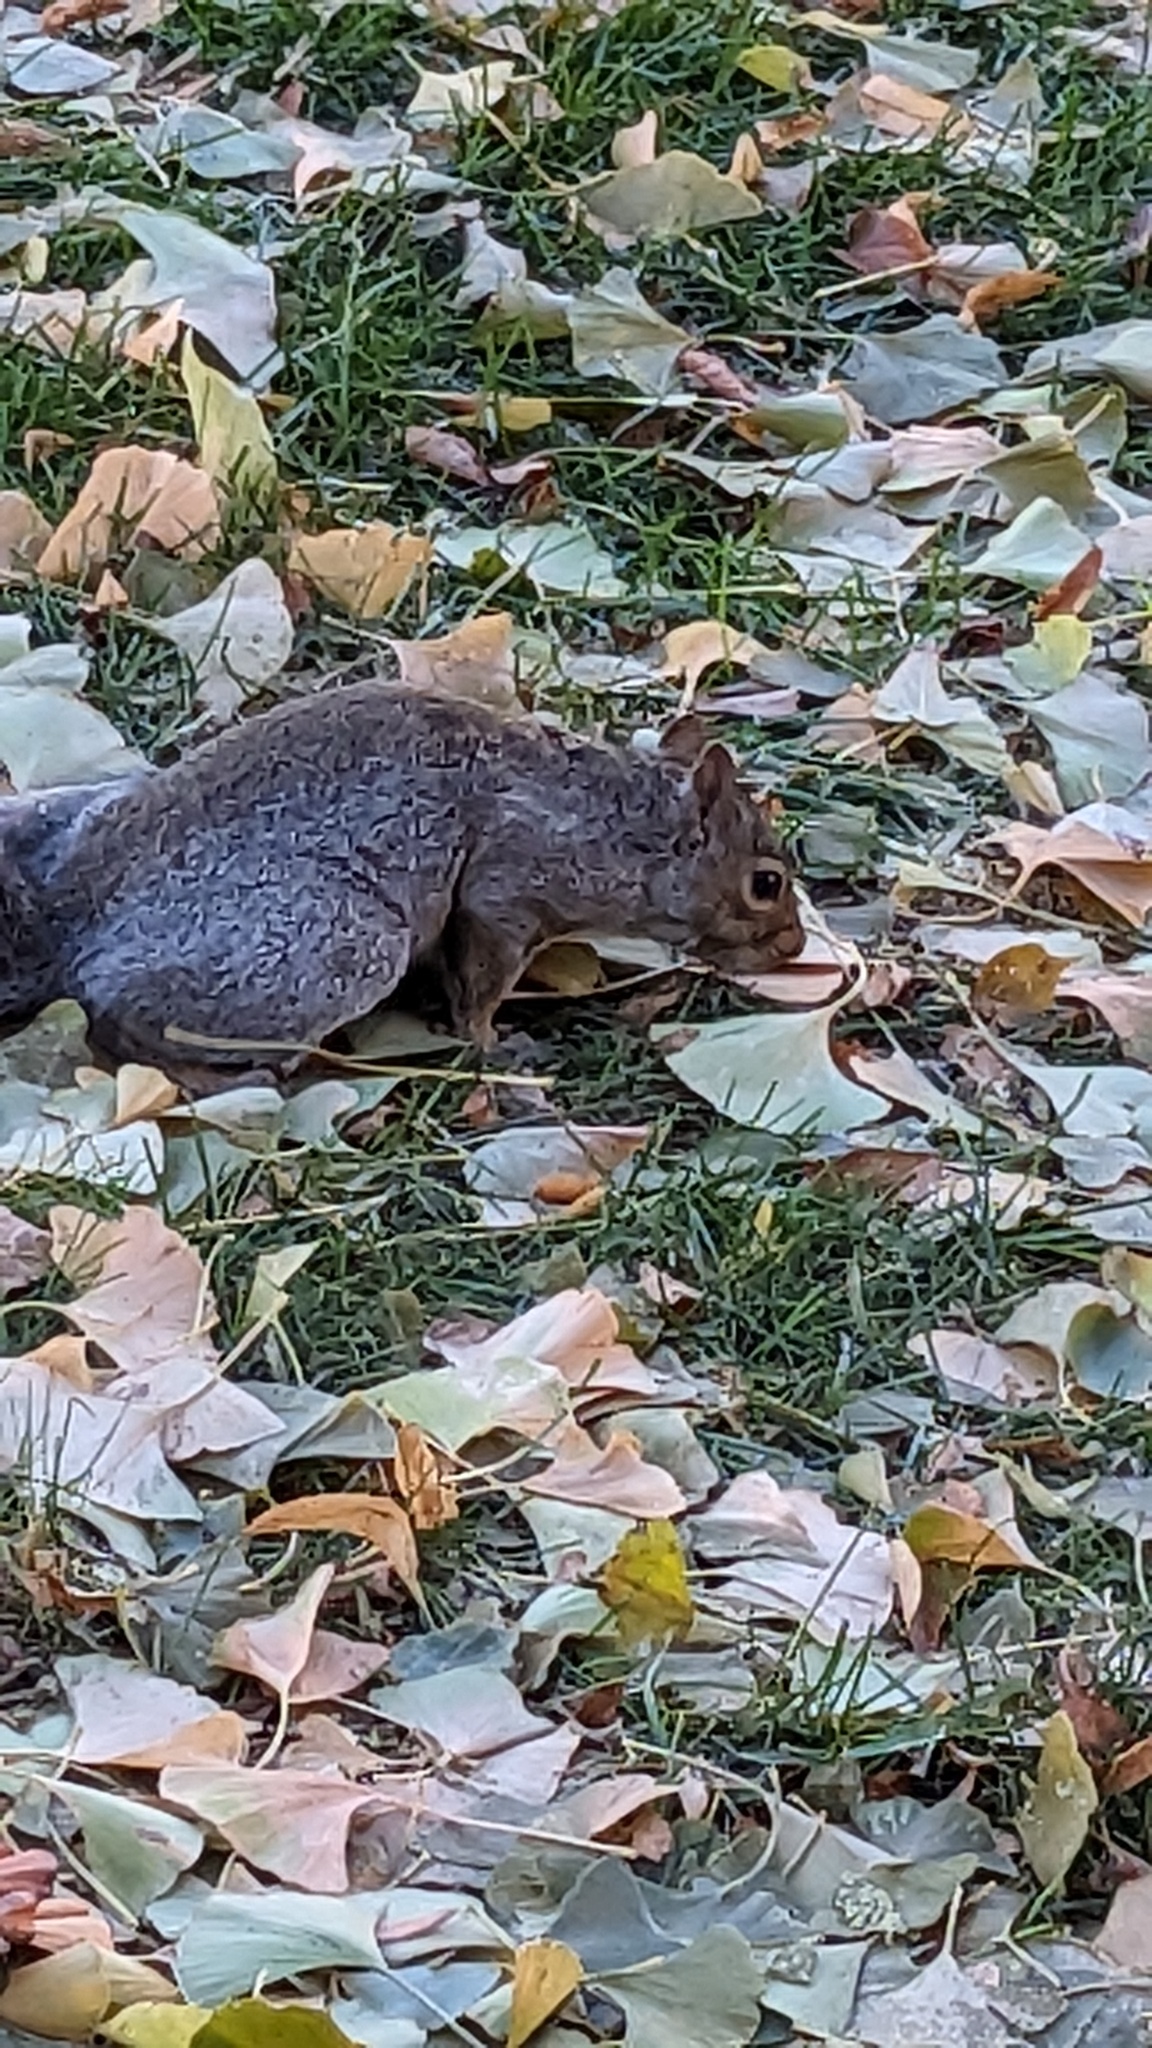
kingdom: Animalia
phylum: Chordata
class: Mammalia
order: Rodentia
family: Sciuridae
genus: Sciurus
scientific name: Sciurus carolinensis
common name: Eastern gray squirrel
